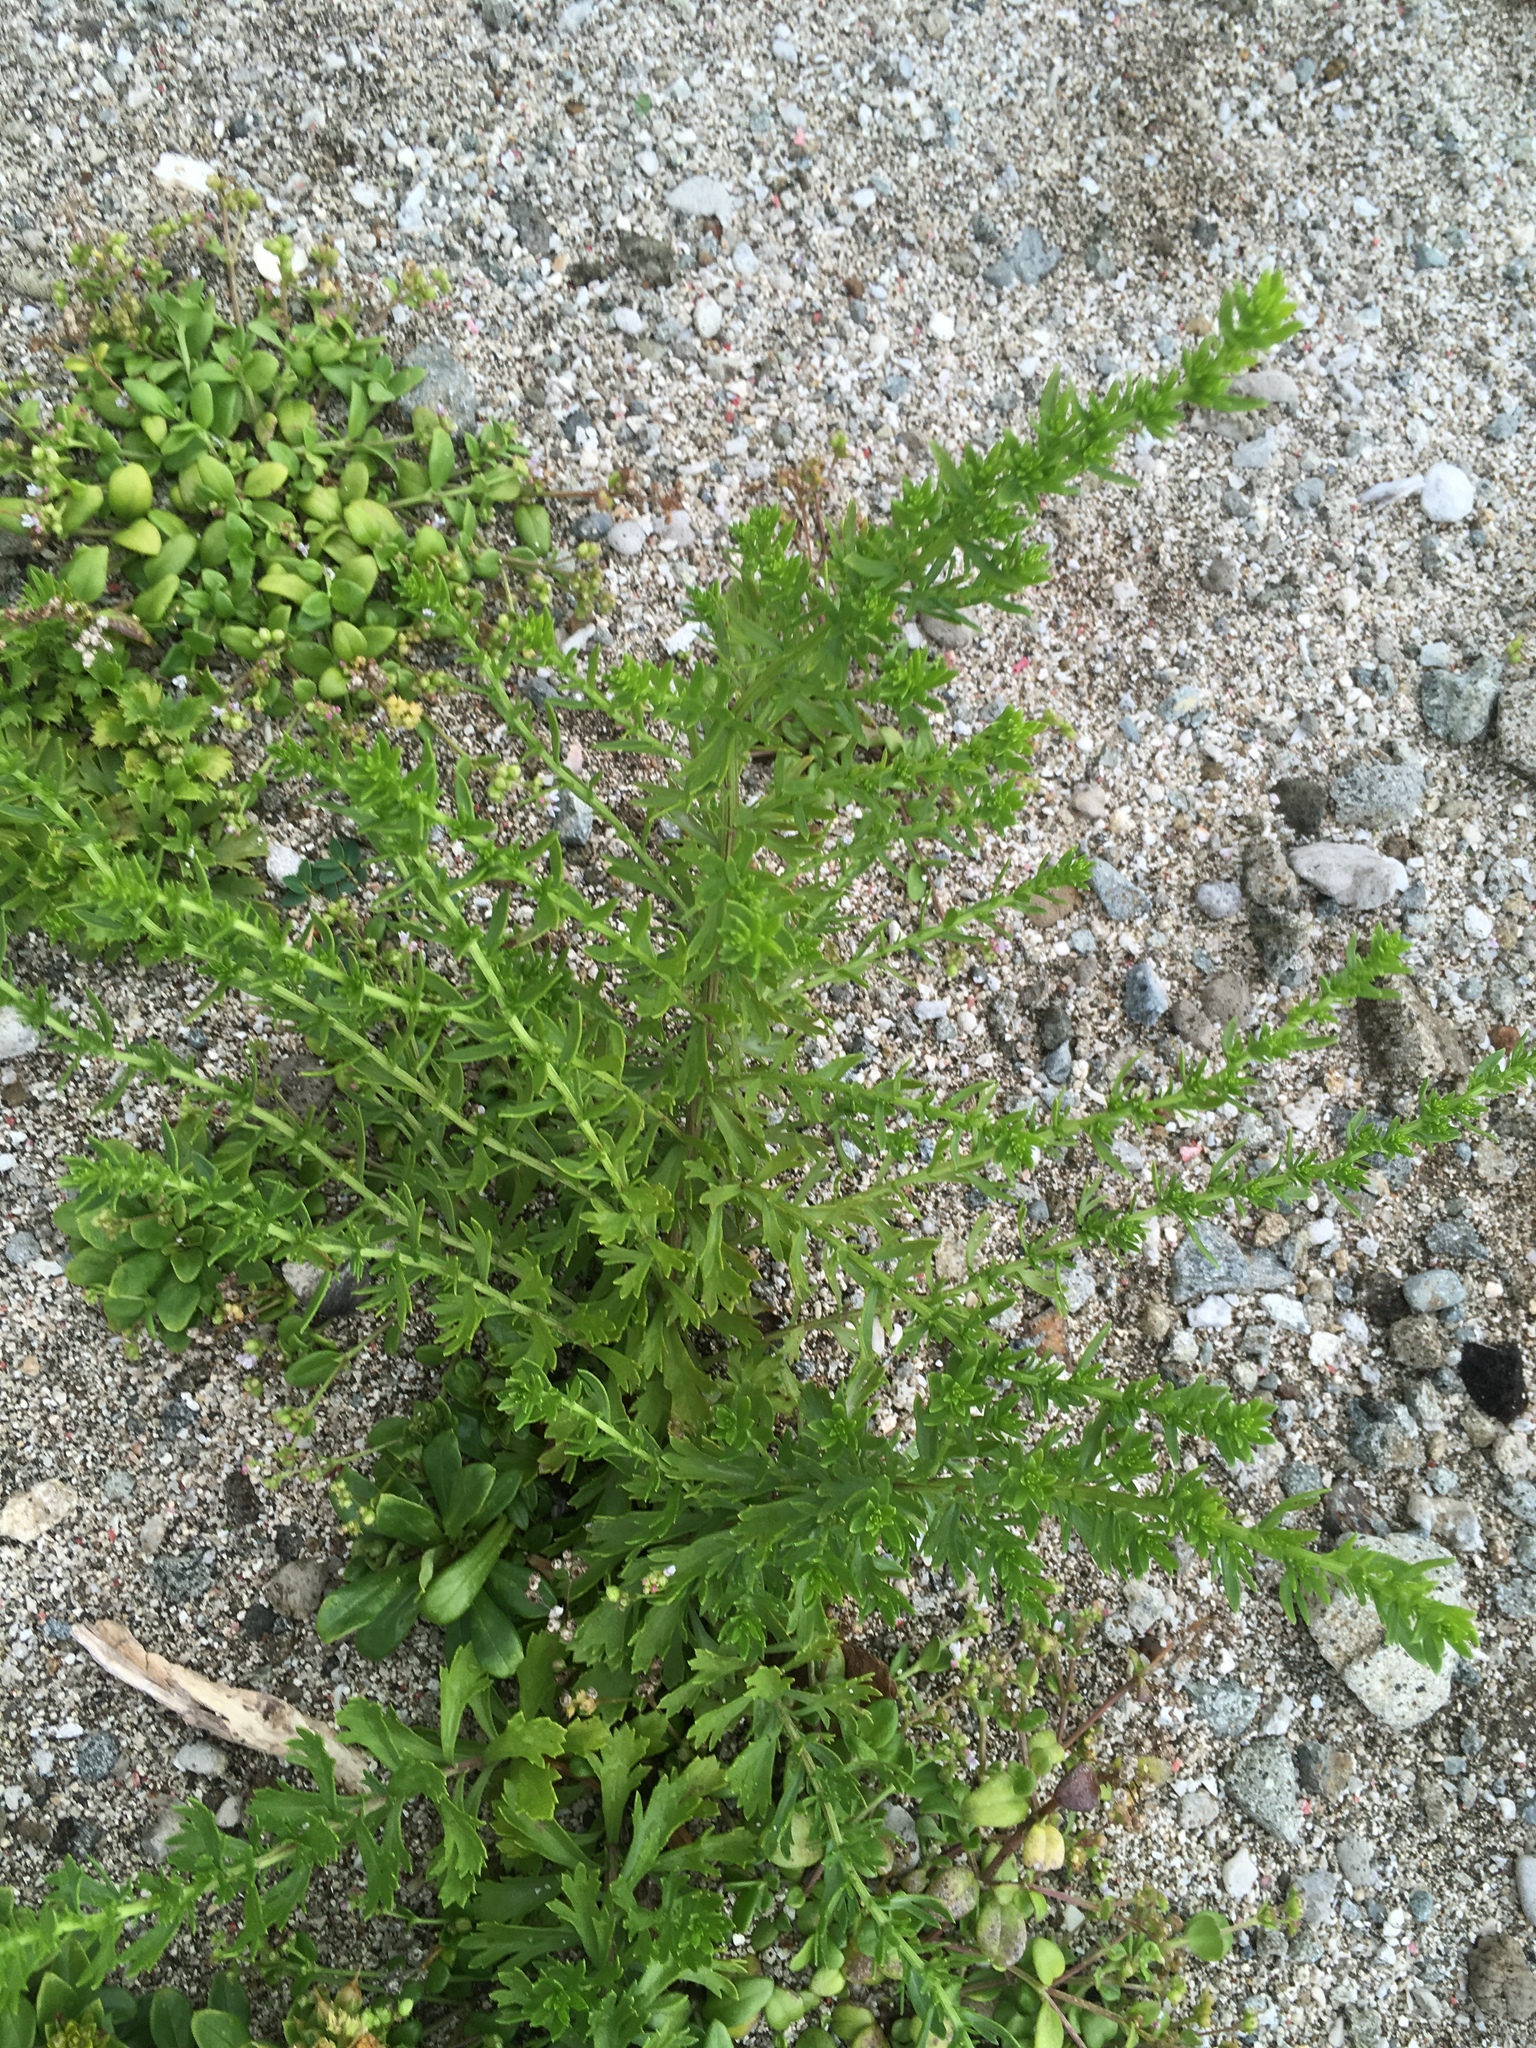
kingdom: Plantae
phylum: Tracheophyta
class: Magnoliopsida
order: Asterales
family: Asteraceae
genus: Artemisia
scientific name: Artemisia japonica
